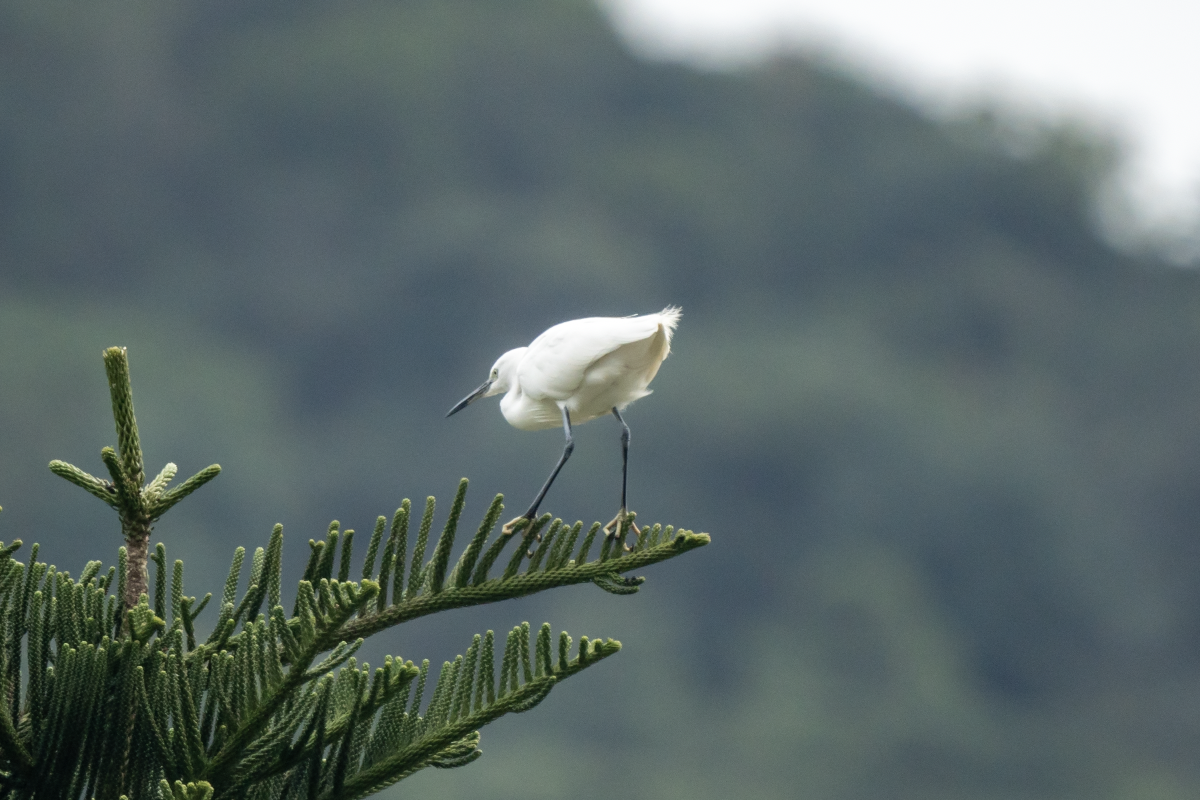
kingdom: Animalia
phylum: Chordata
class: Aves
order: Pelecaniformes
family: Ardeidae
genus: Egretta
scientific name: Egretta garzetta
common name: Little egret
